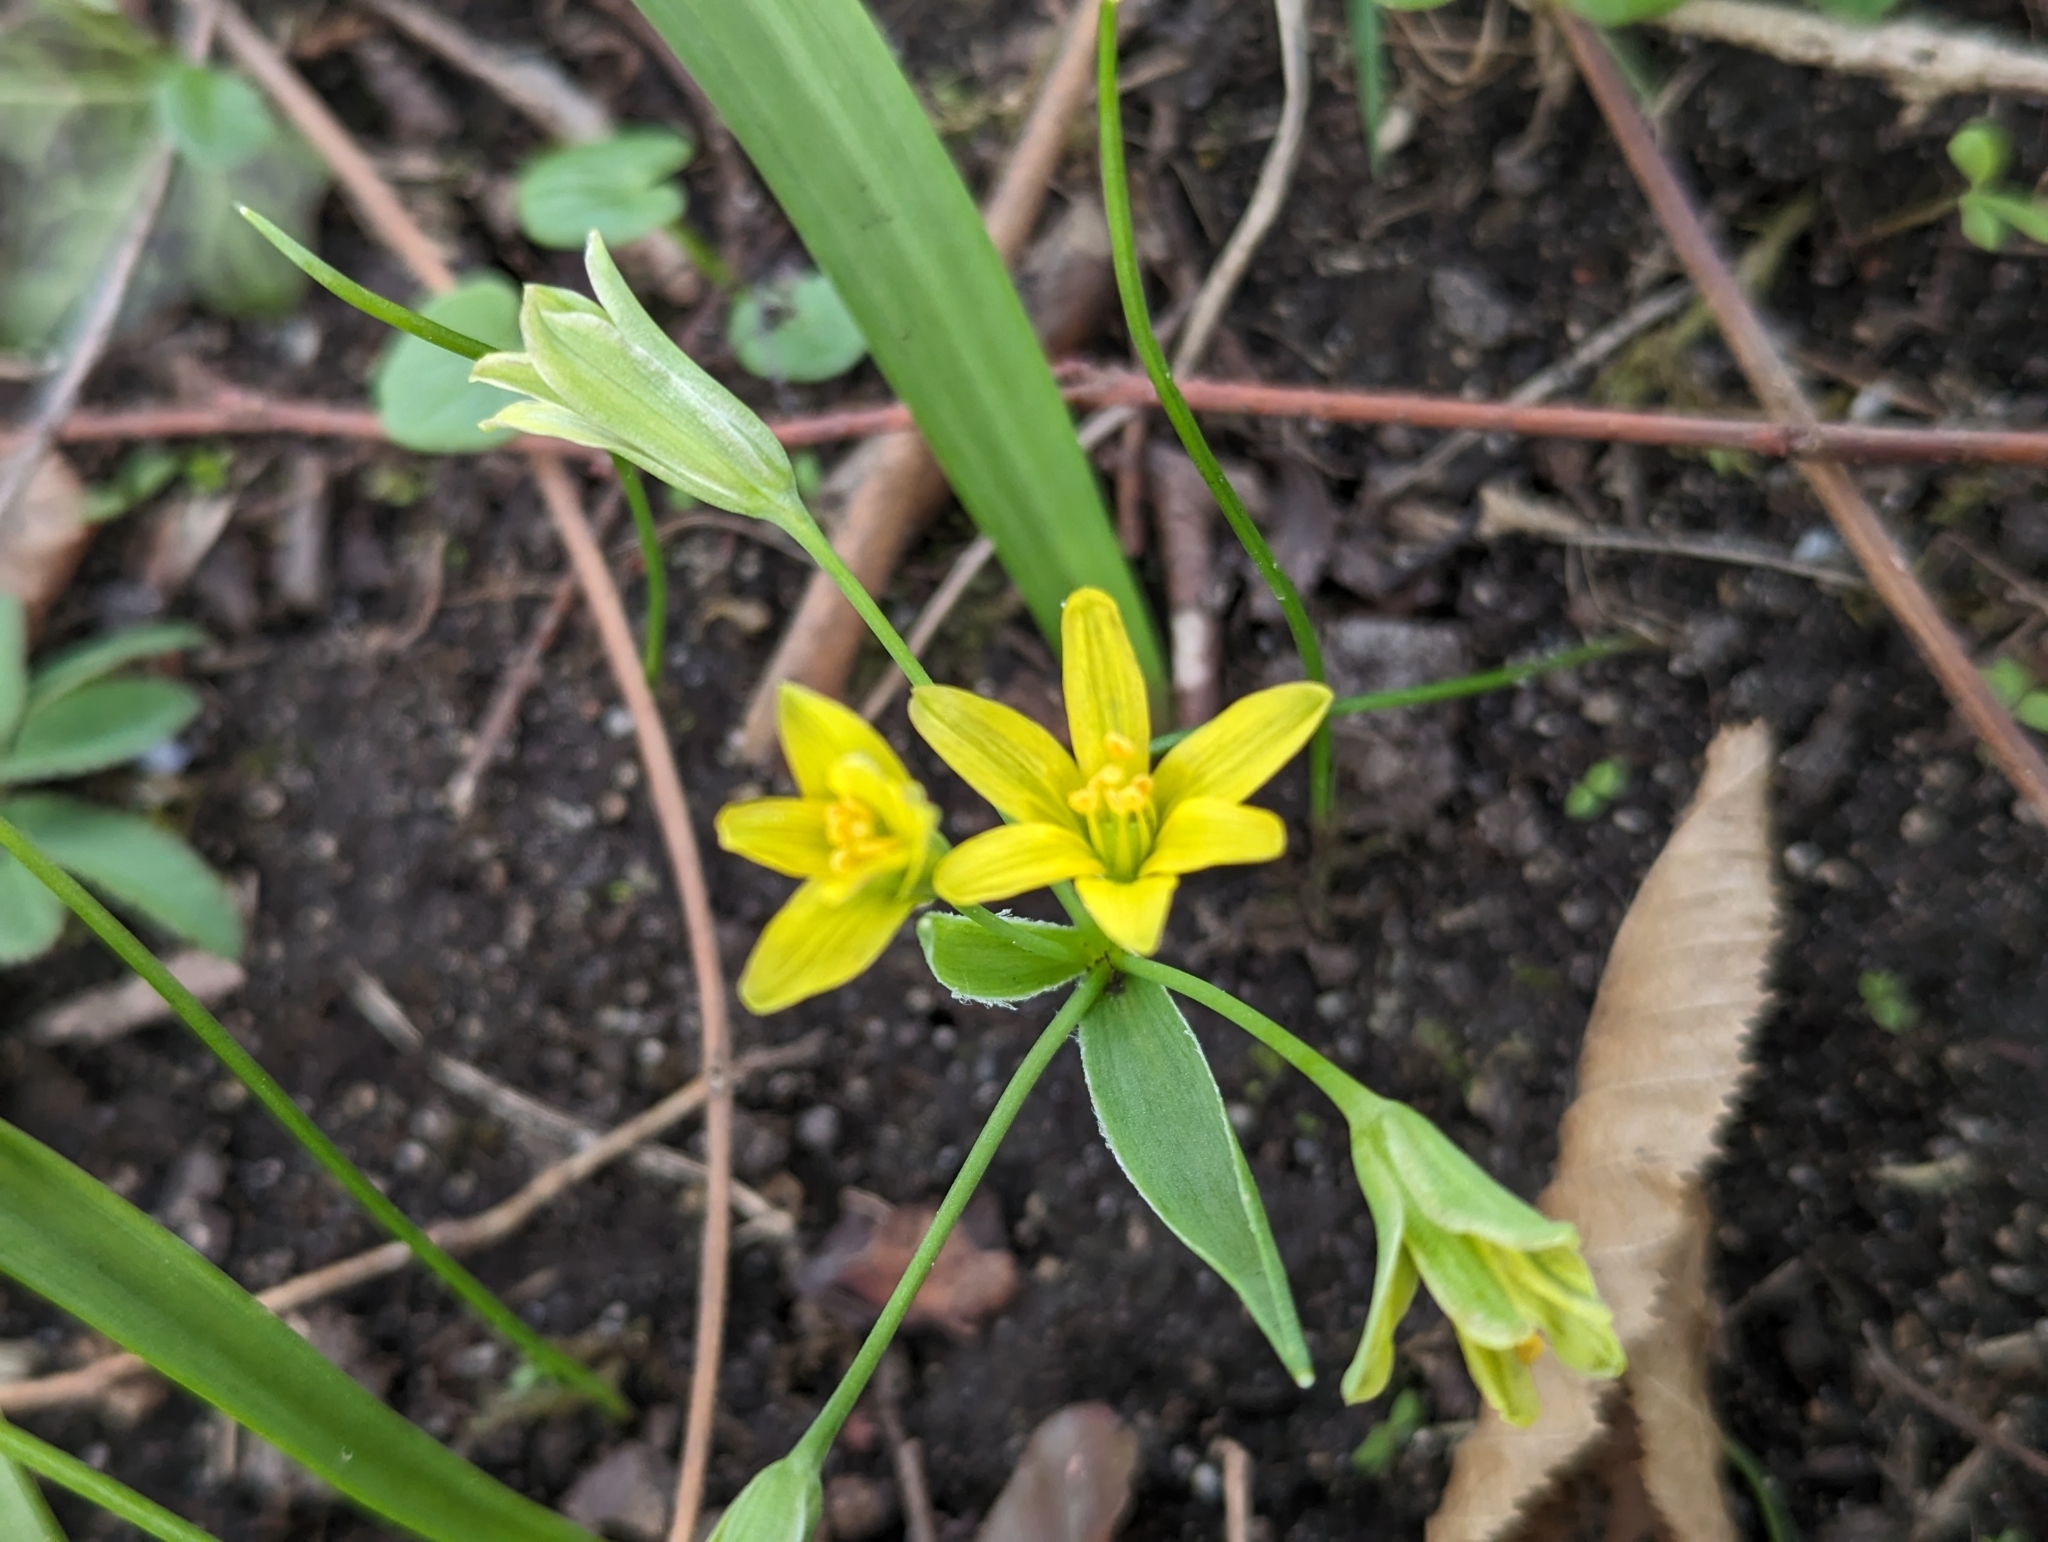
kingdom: Plantae
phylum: Tracheophyta
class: Liliopsida
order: Liliales
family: Liliaceae
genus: Gagea
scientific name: Gagea lutea
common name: Yellow star-of-bethlehem
